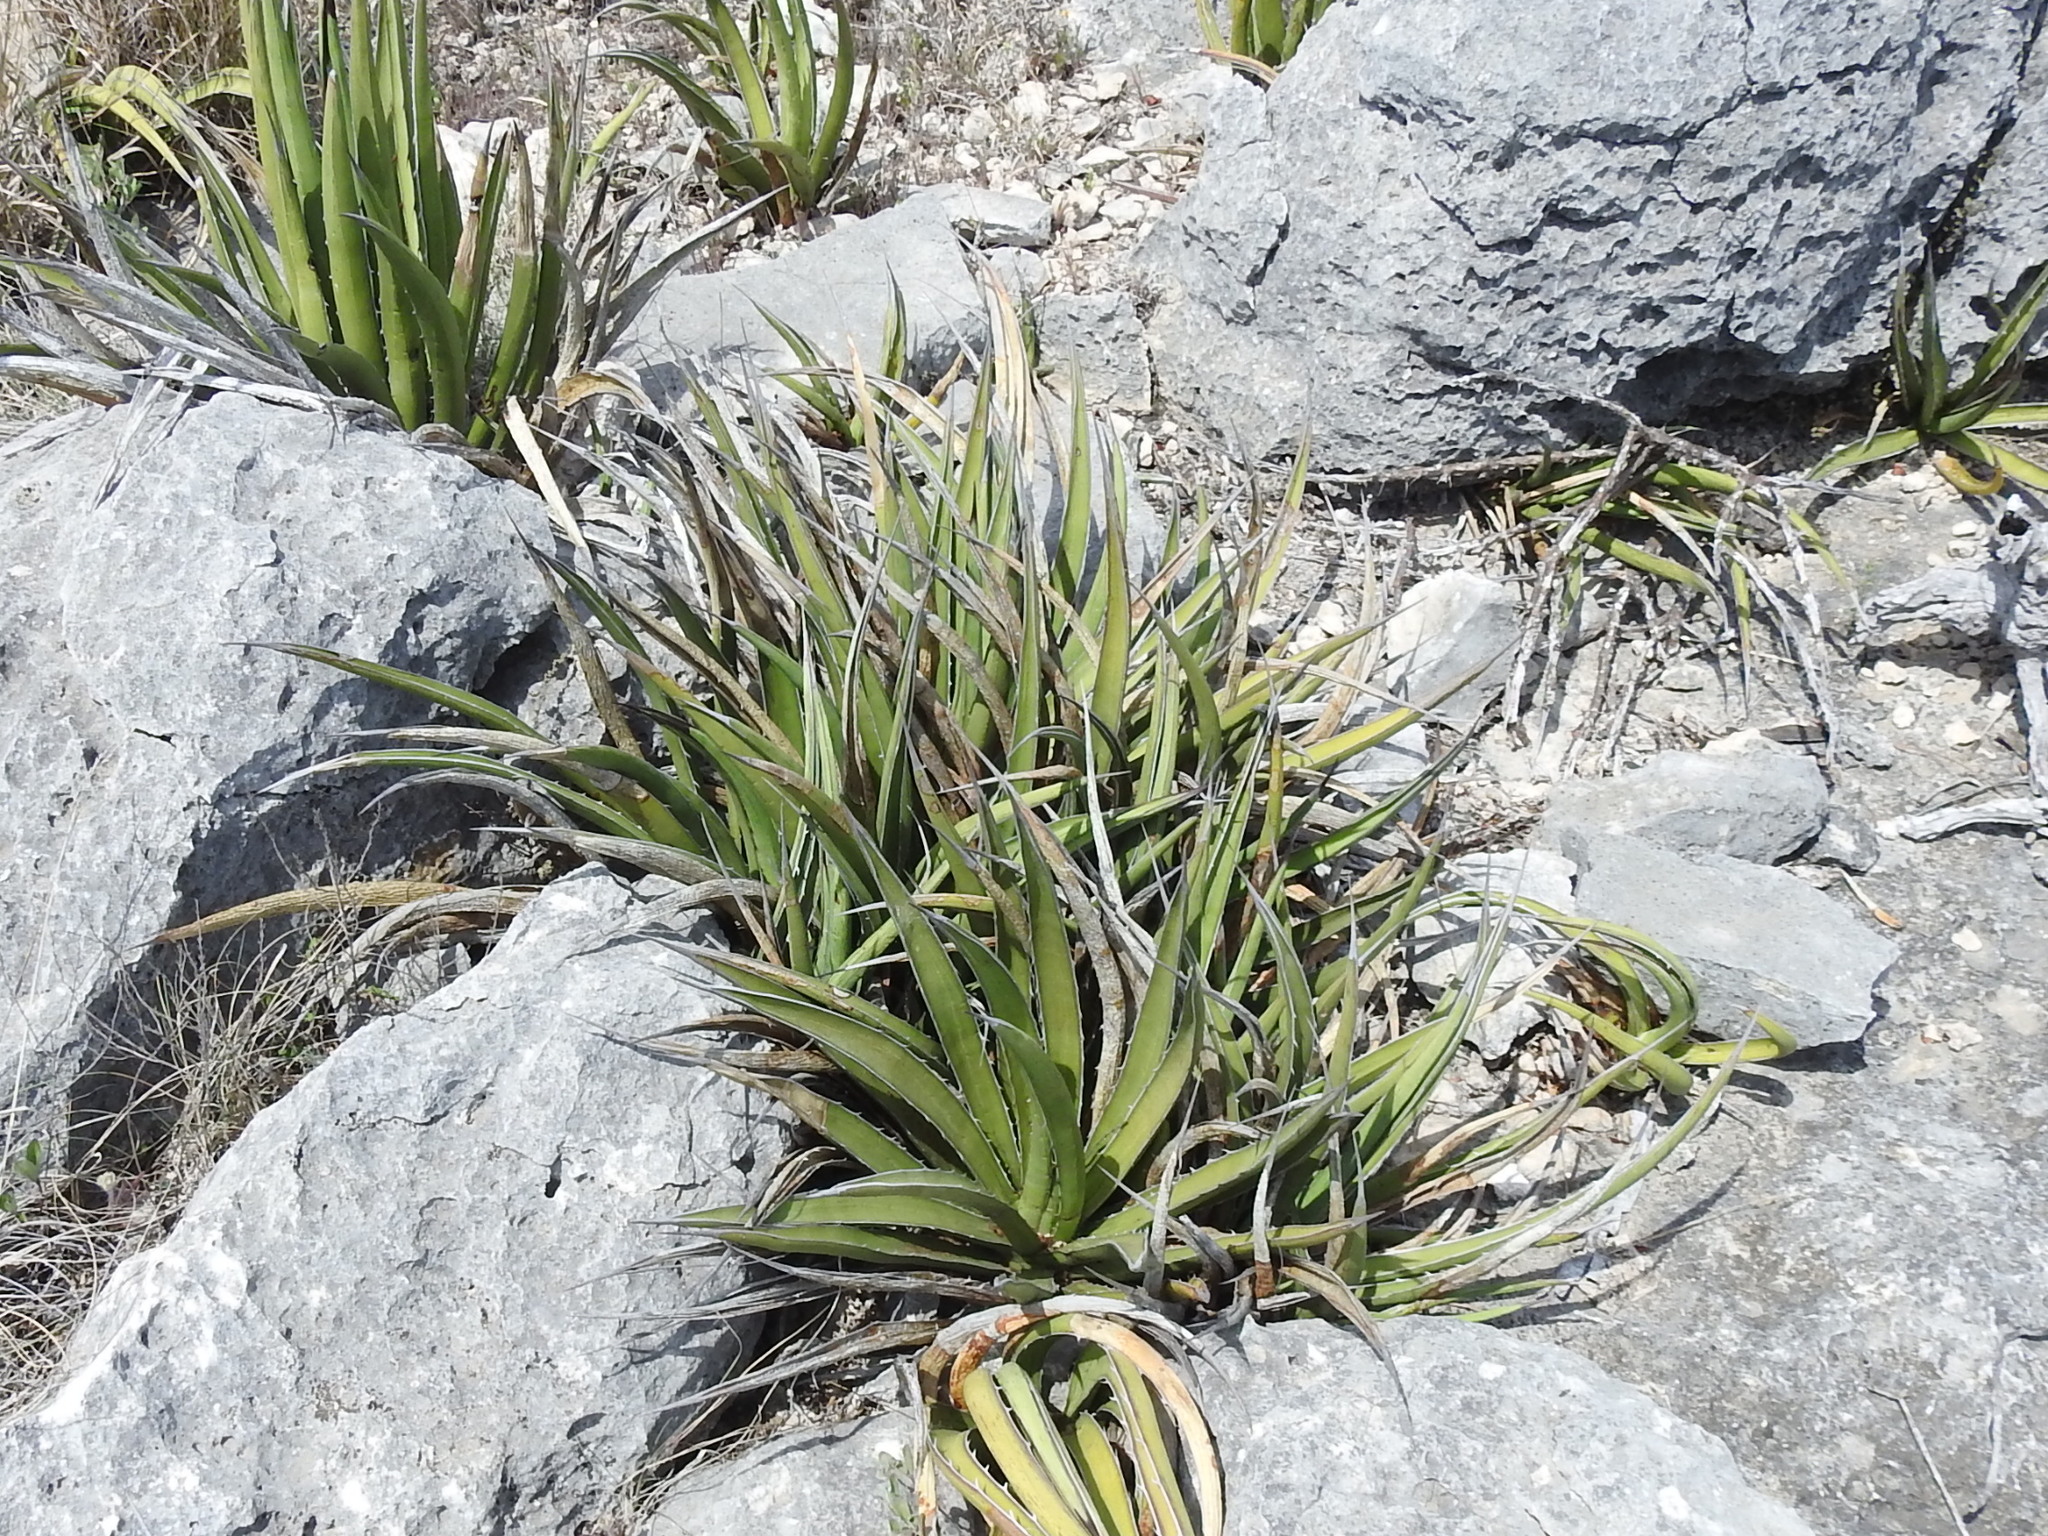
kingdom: Plantae
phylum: Tracheophyta
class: Liliopsida
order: Asparagales
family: Asparagaceae
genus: Agave
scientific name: Agave lechuguilla
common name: Lecheguilla agave
